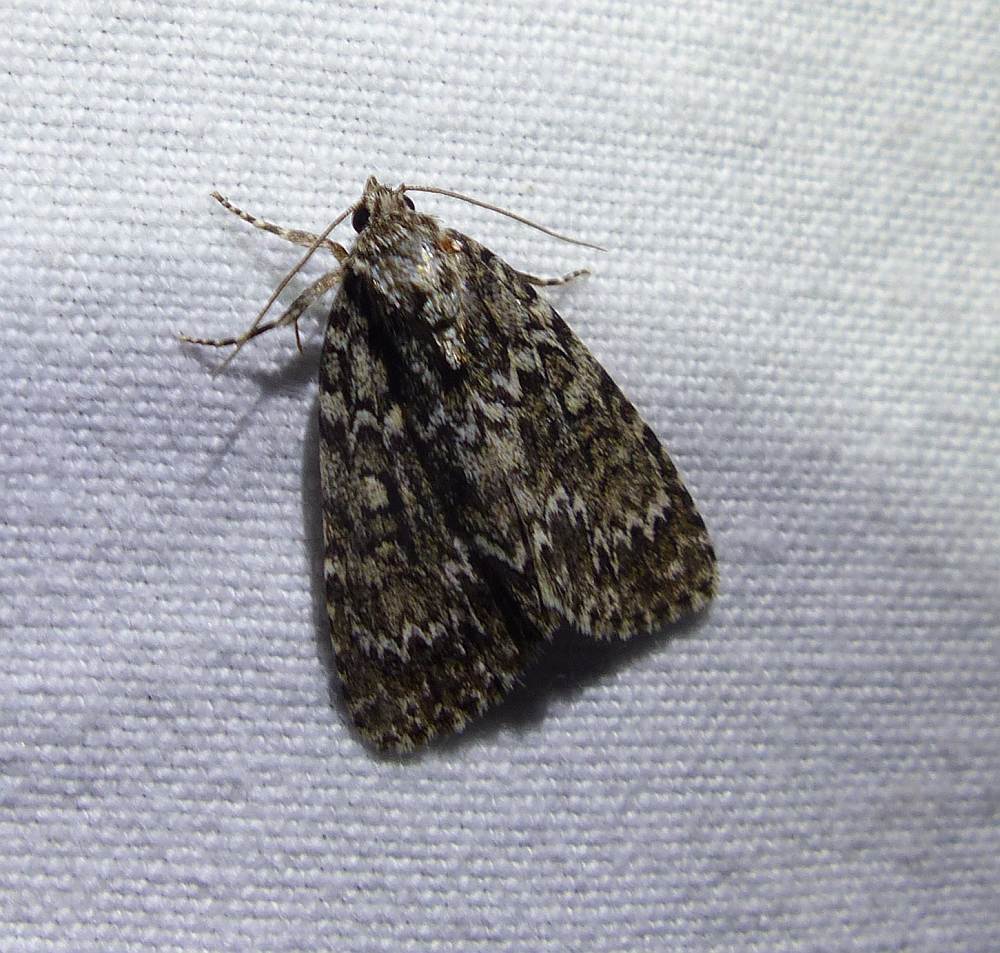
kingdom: Animalia
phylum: Arthropoda
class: Insecta
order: Lepidoptera
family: Noctuidae
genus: Acronicta
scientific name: Acronicta fragilis
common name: Fragile dagger
